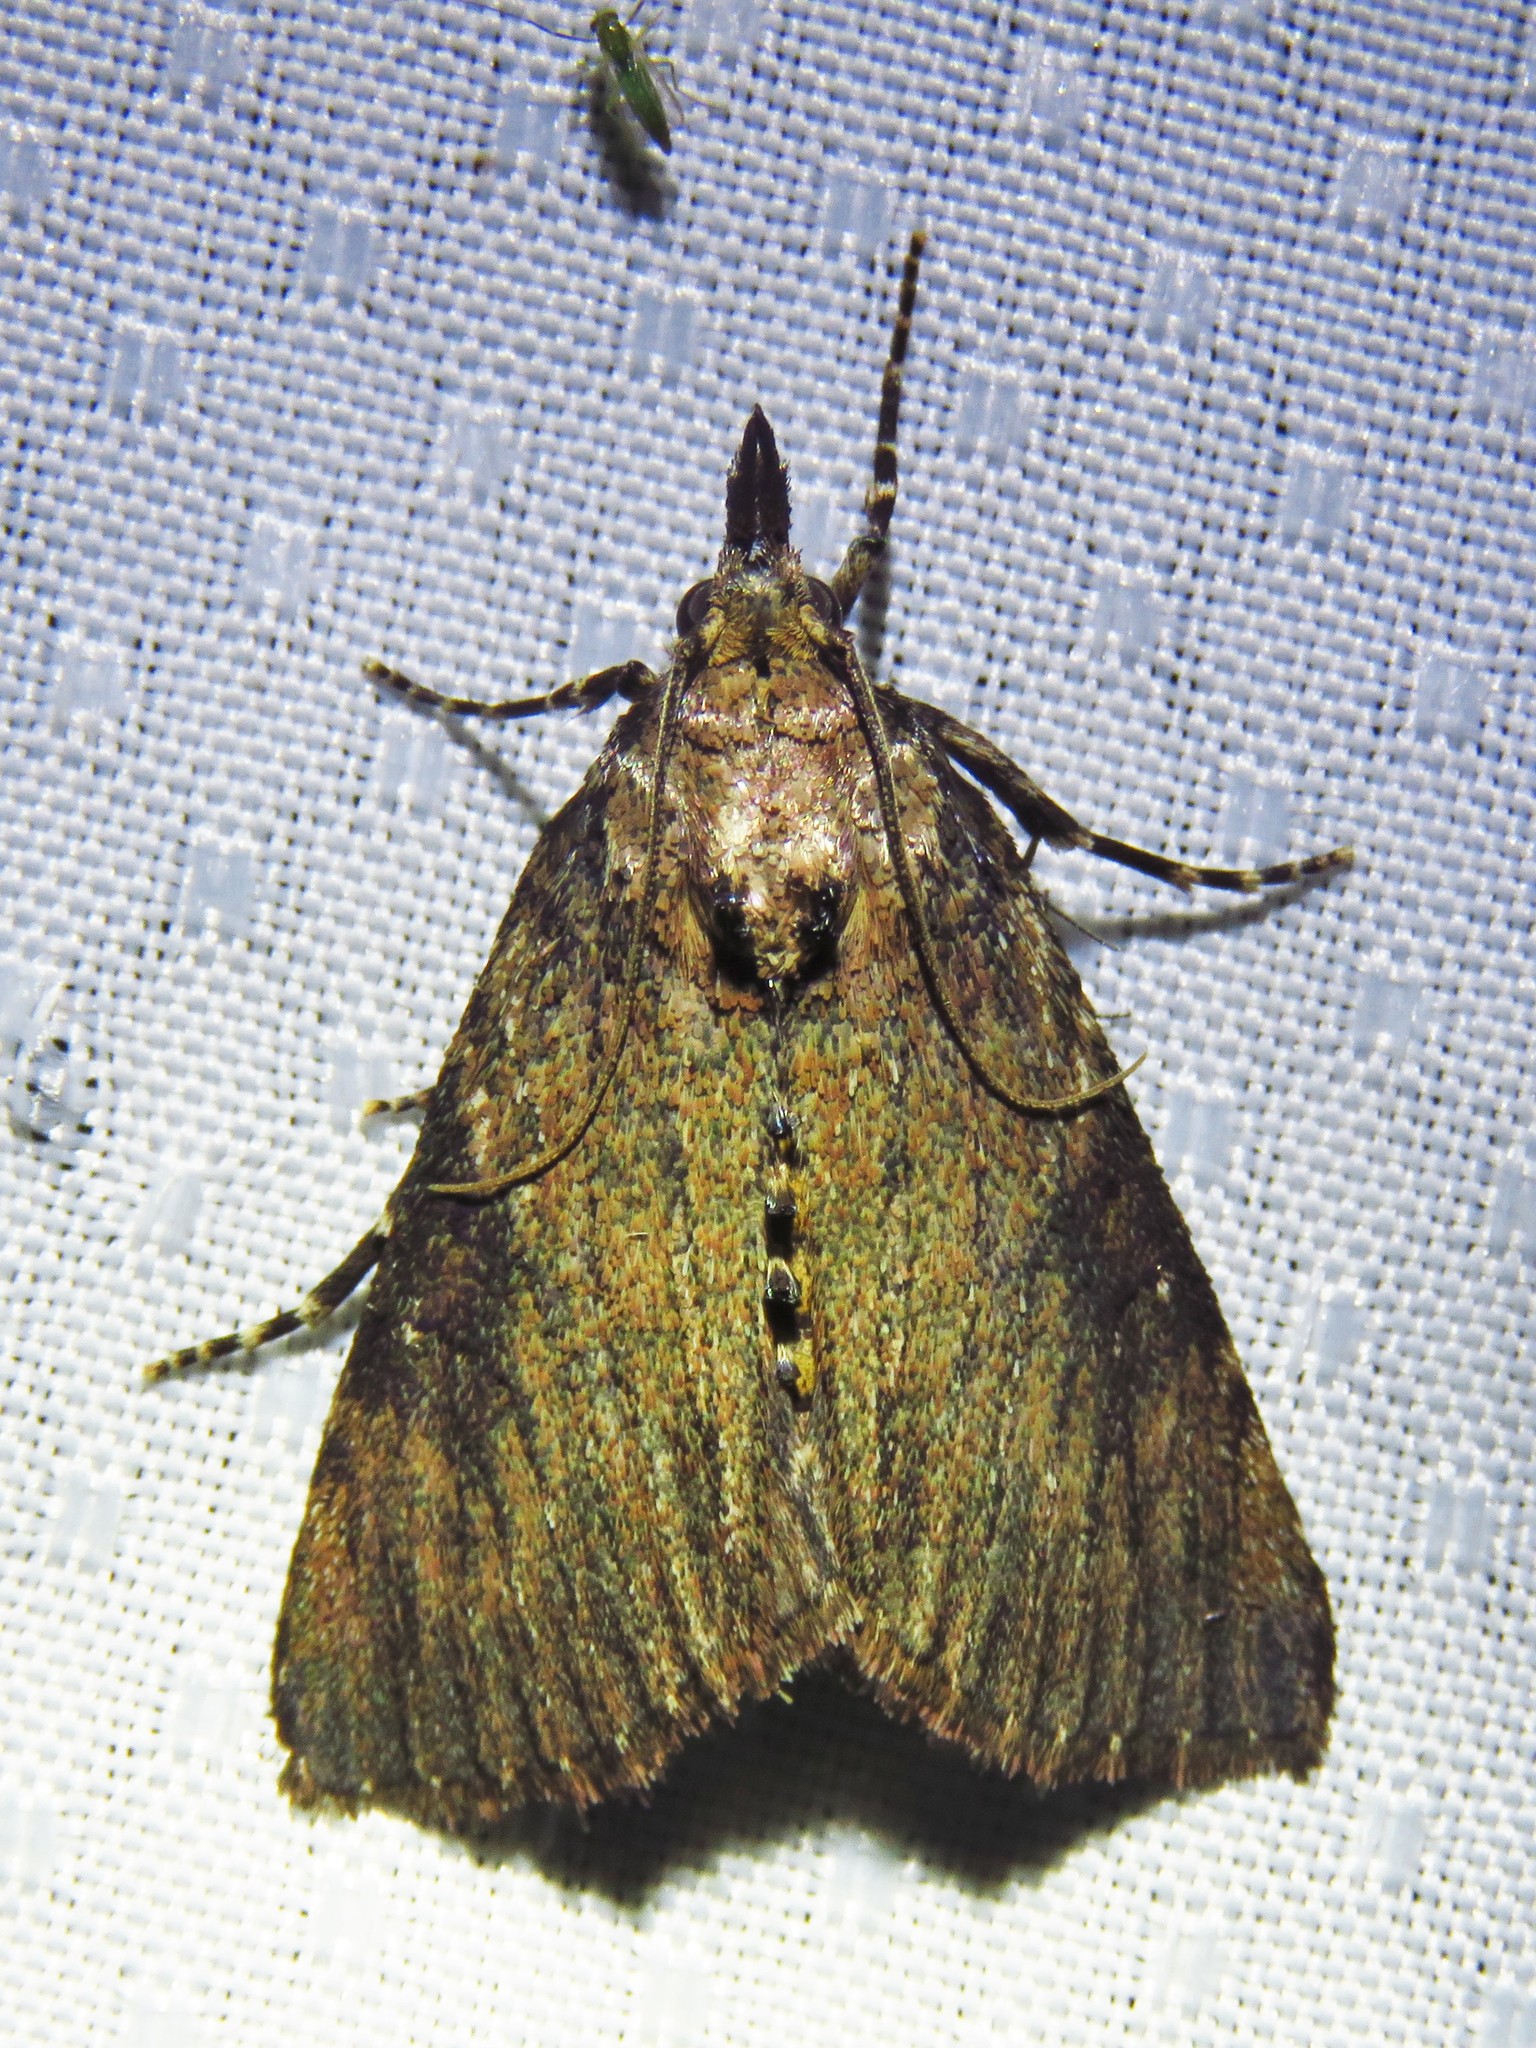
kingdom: Animalia
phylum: Arthropoda
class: Insecta
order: Lepidoptera
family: Pyralidae
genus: Omphalocera
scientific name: Omphalocera cariosa
